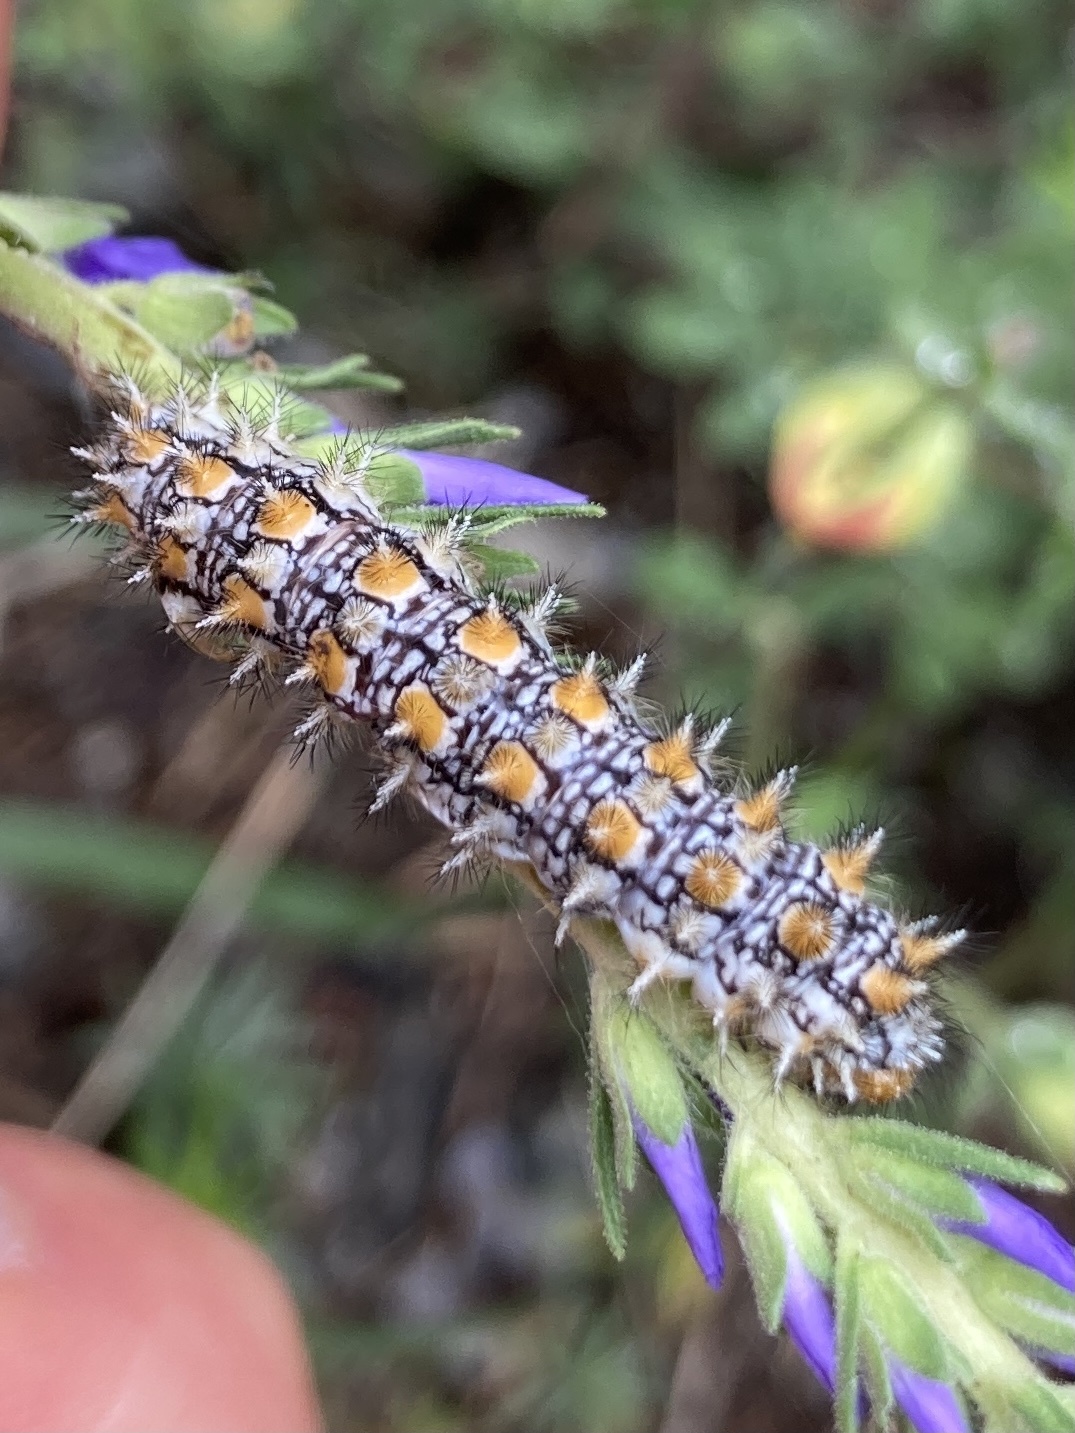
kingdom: Animalia
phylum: Arthropoda
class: Insecta
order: Lepidoptera
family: Nymphalidae
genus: Melitaea
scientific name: Melitaea didyma
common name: Spotted fritillary
